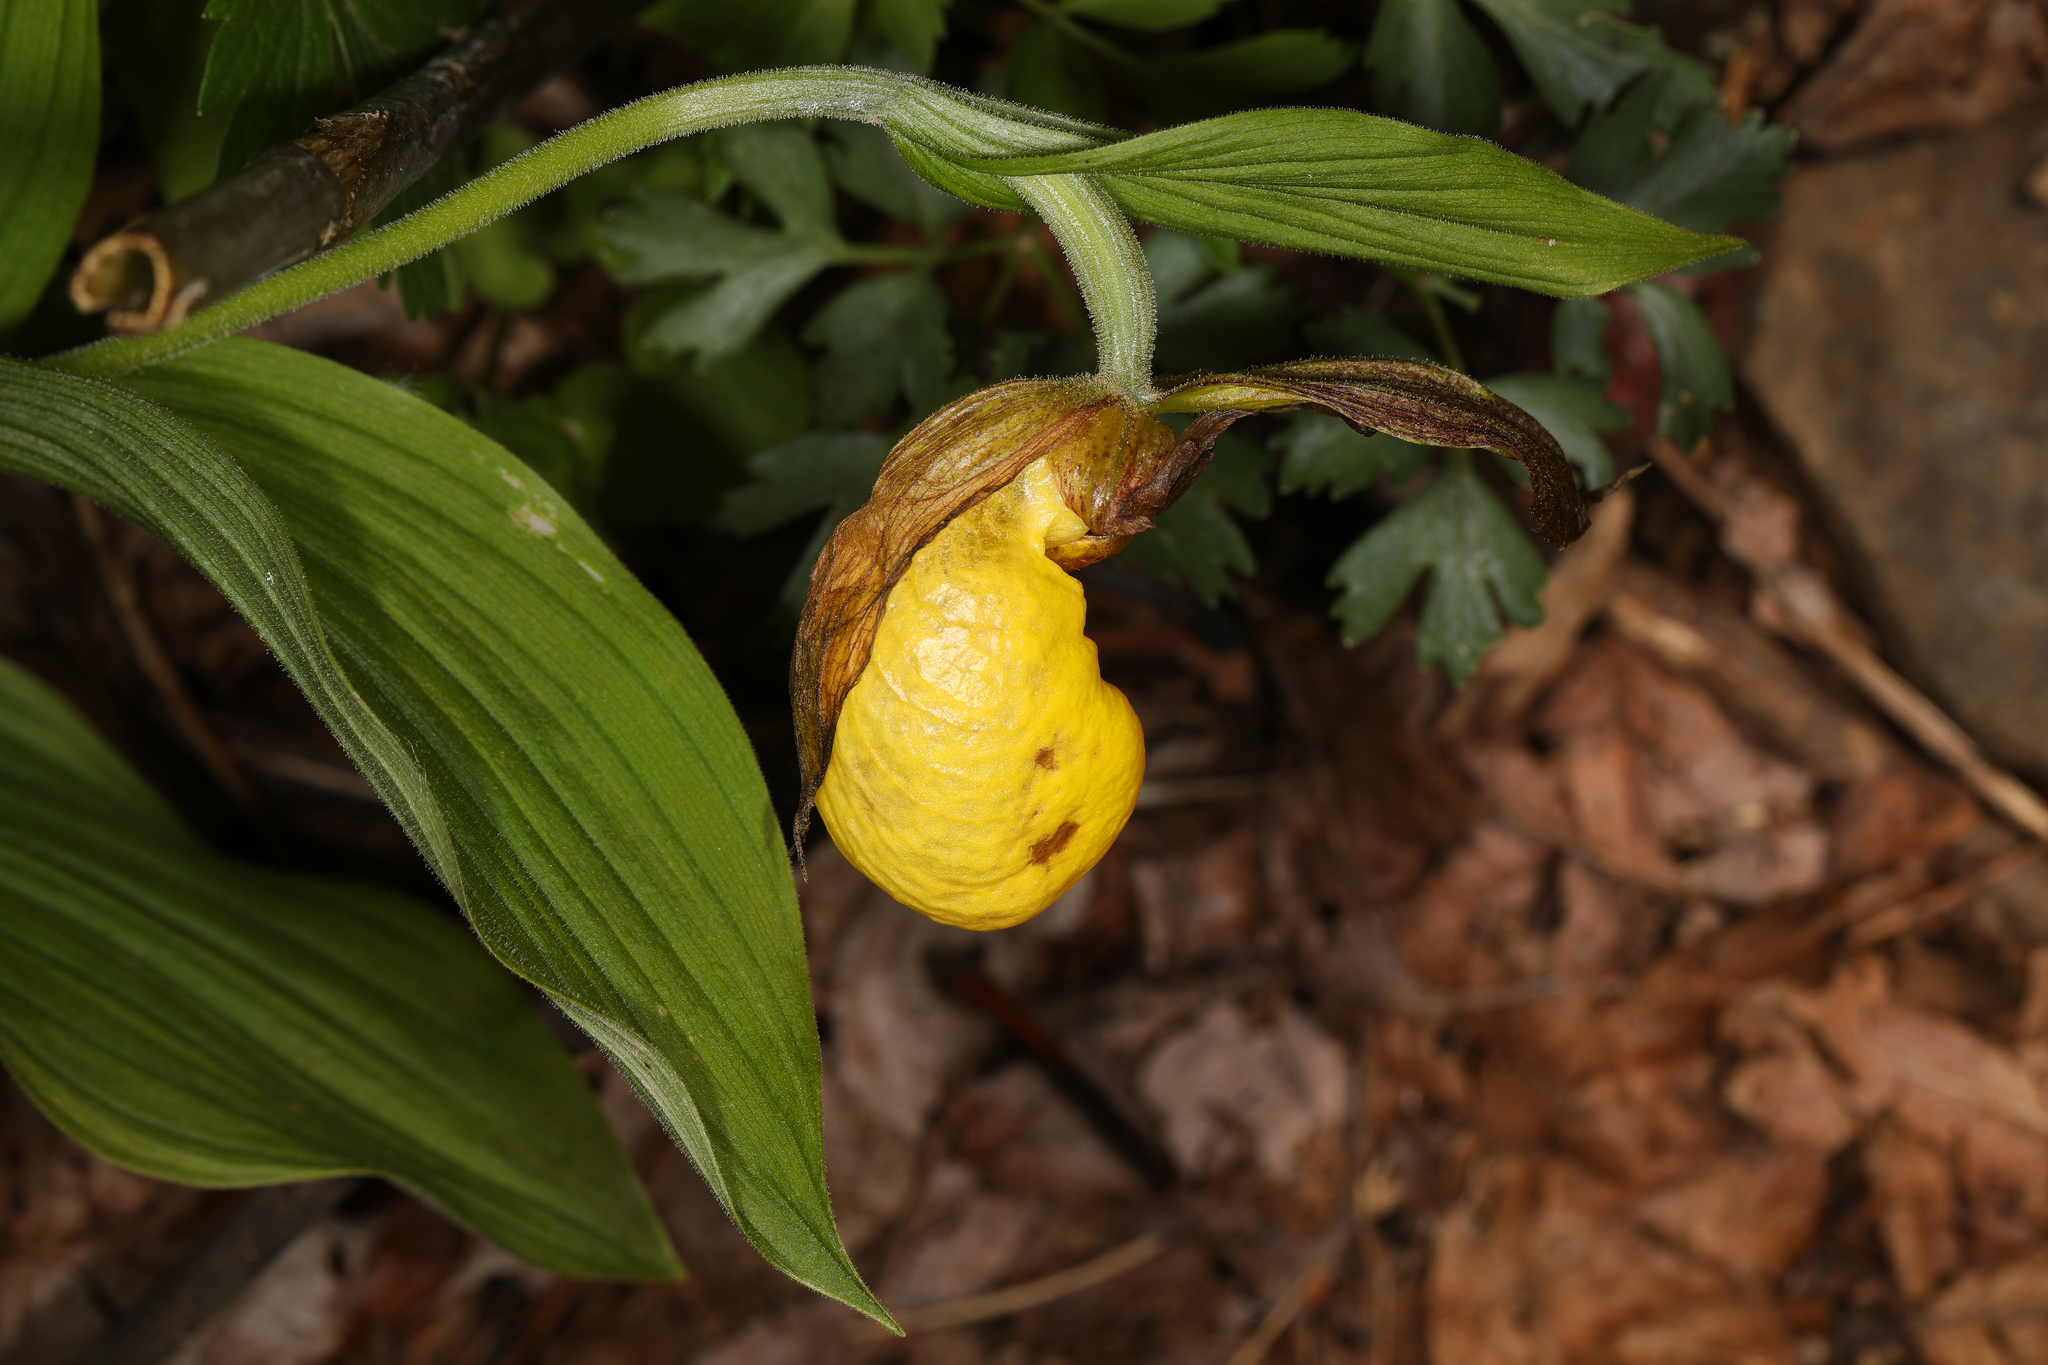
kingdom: Plantae
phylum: Tracheophyta
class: Liliopsida
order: Asparagales
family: Orchidaceae
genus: Cypripedium
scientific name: Cypripedium parviflorum
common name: American yellow lady's-slipper
